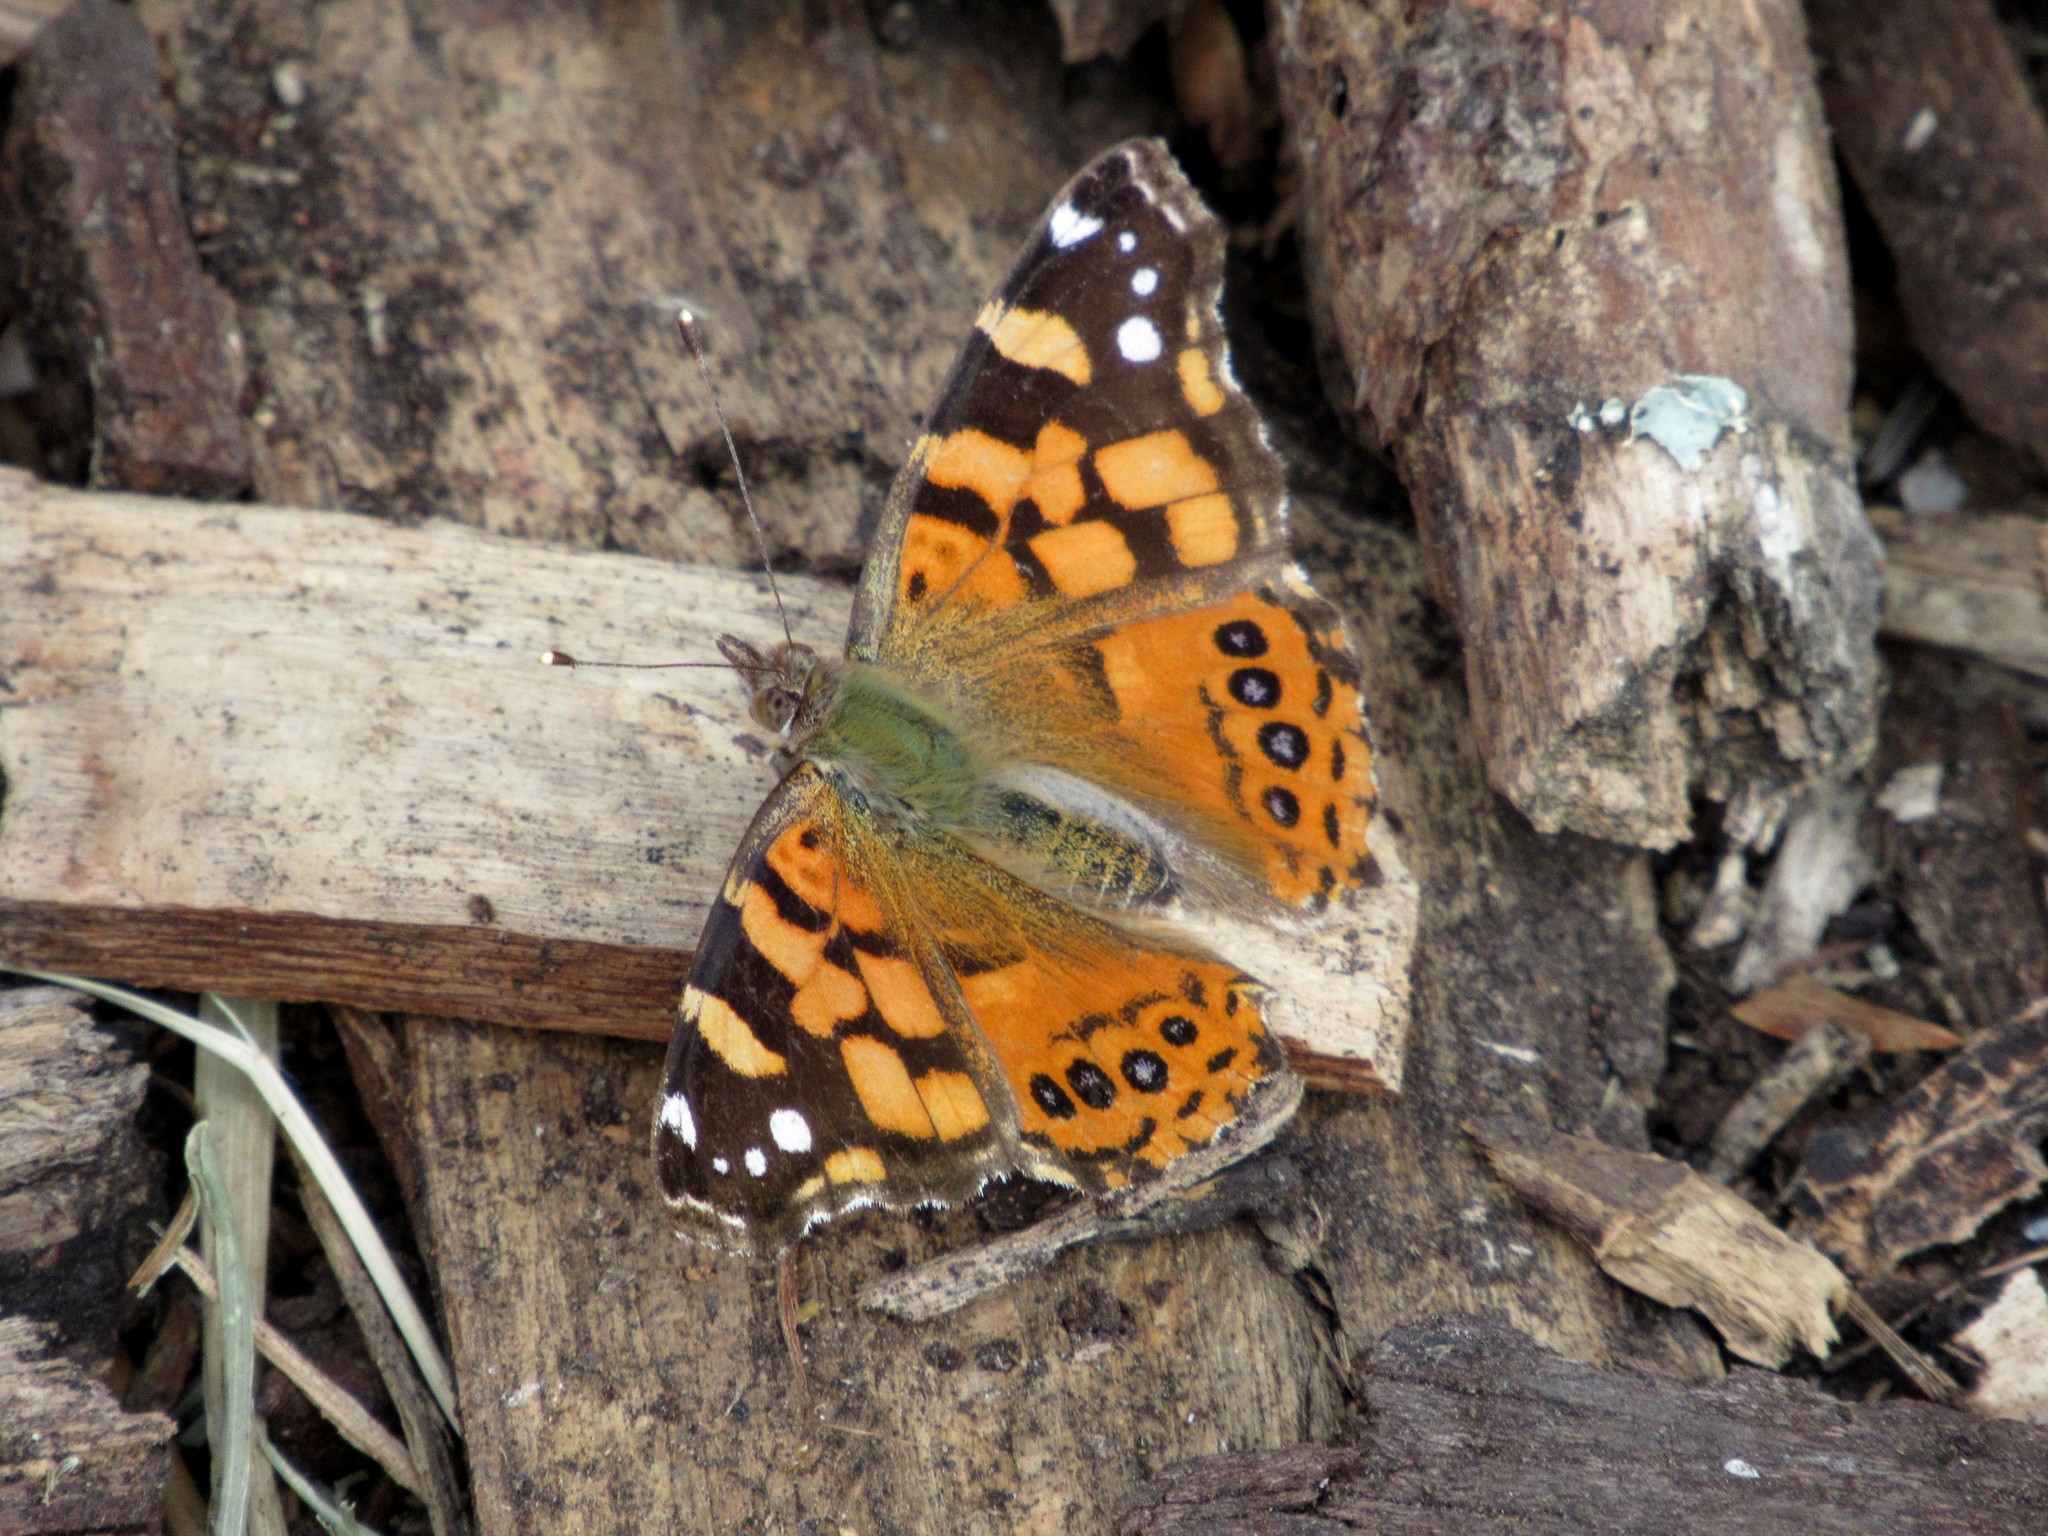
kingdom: Animalia
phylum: Arthropoda
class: Insecta
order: Lepidoptera
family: Nymphalidae
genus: Vanessa
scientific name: Vanessa carye
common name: Subtropical lady
